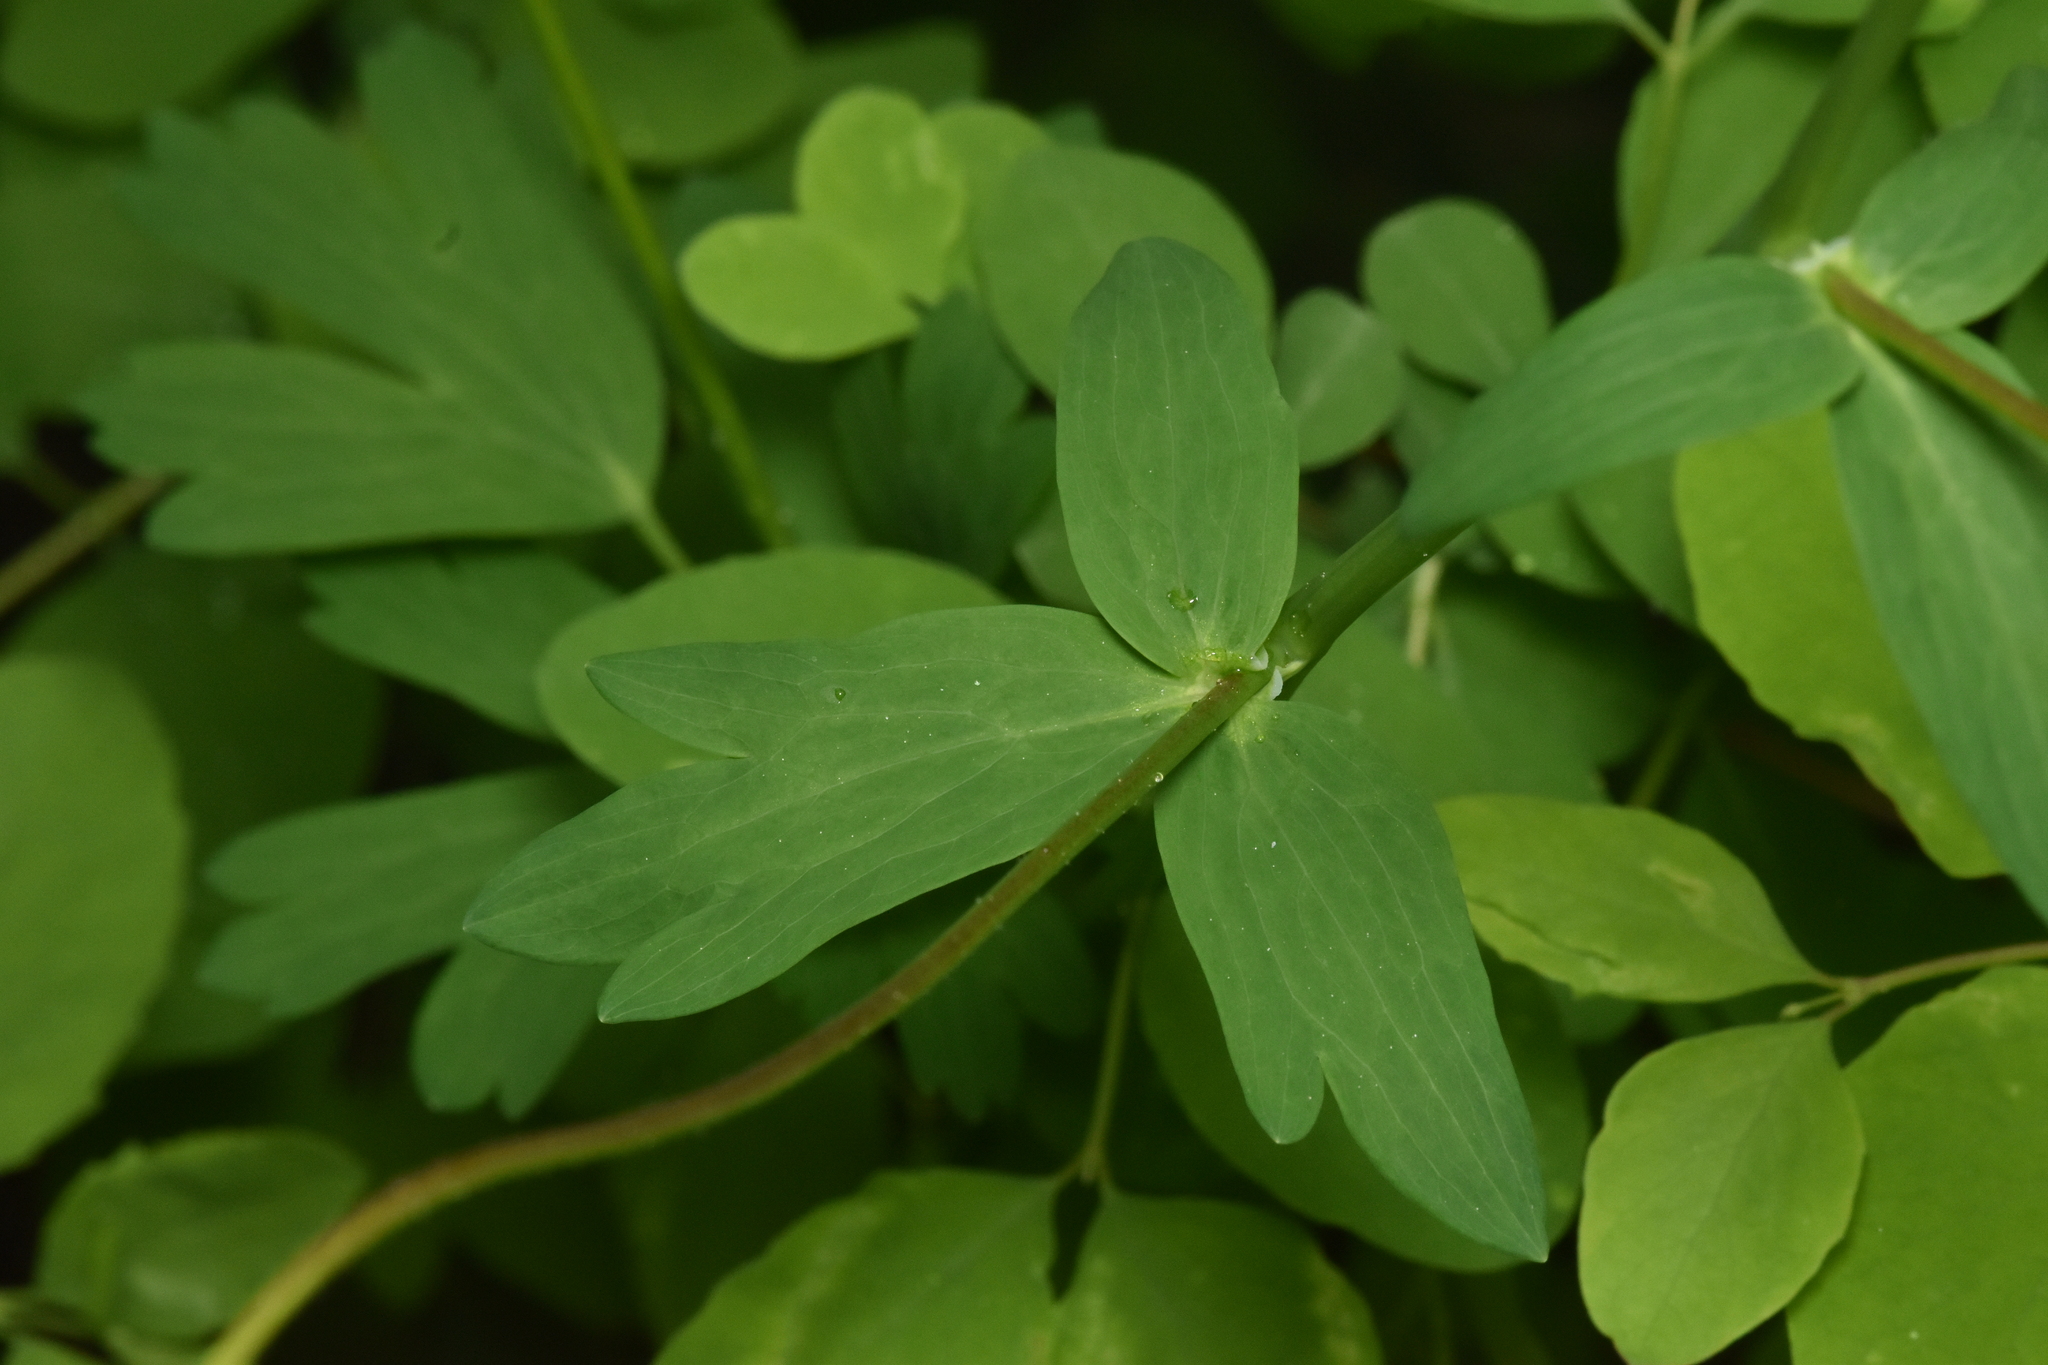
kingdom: Plantae
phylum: Tracheophyta
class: Magnoliopsida
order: Ranunculales
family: Ranunculaceae
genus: Aquilegia
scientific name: Aquilegia formosa
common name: Sitka columbine
